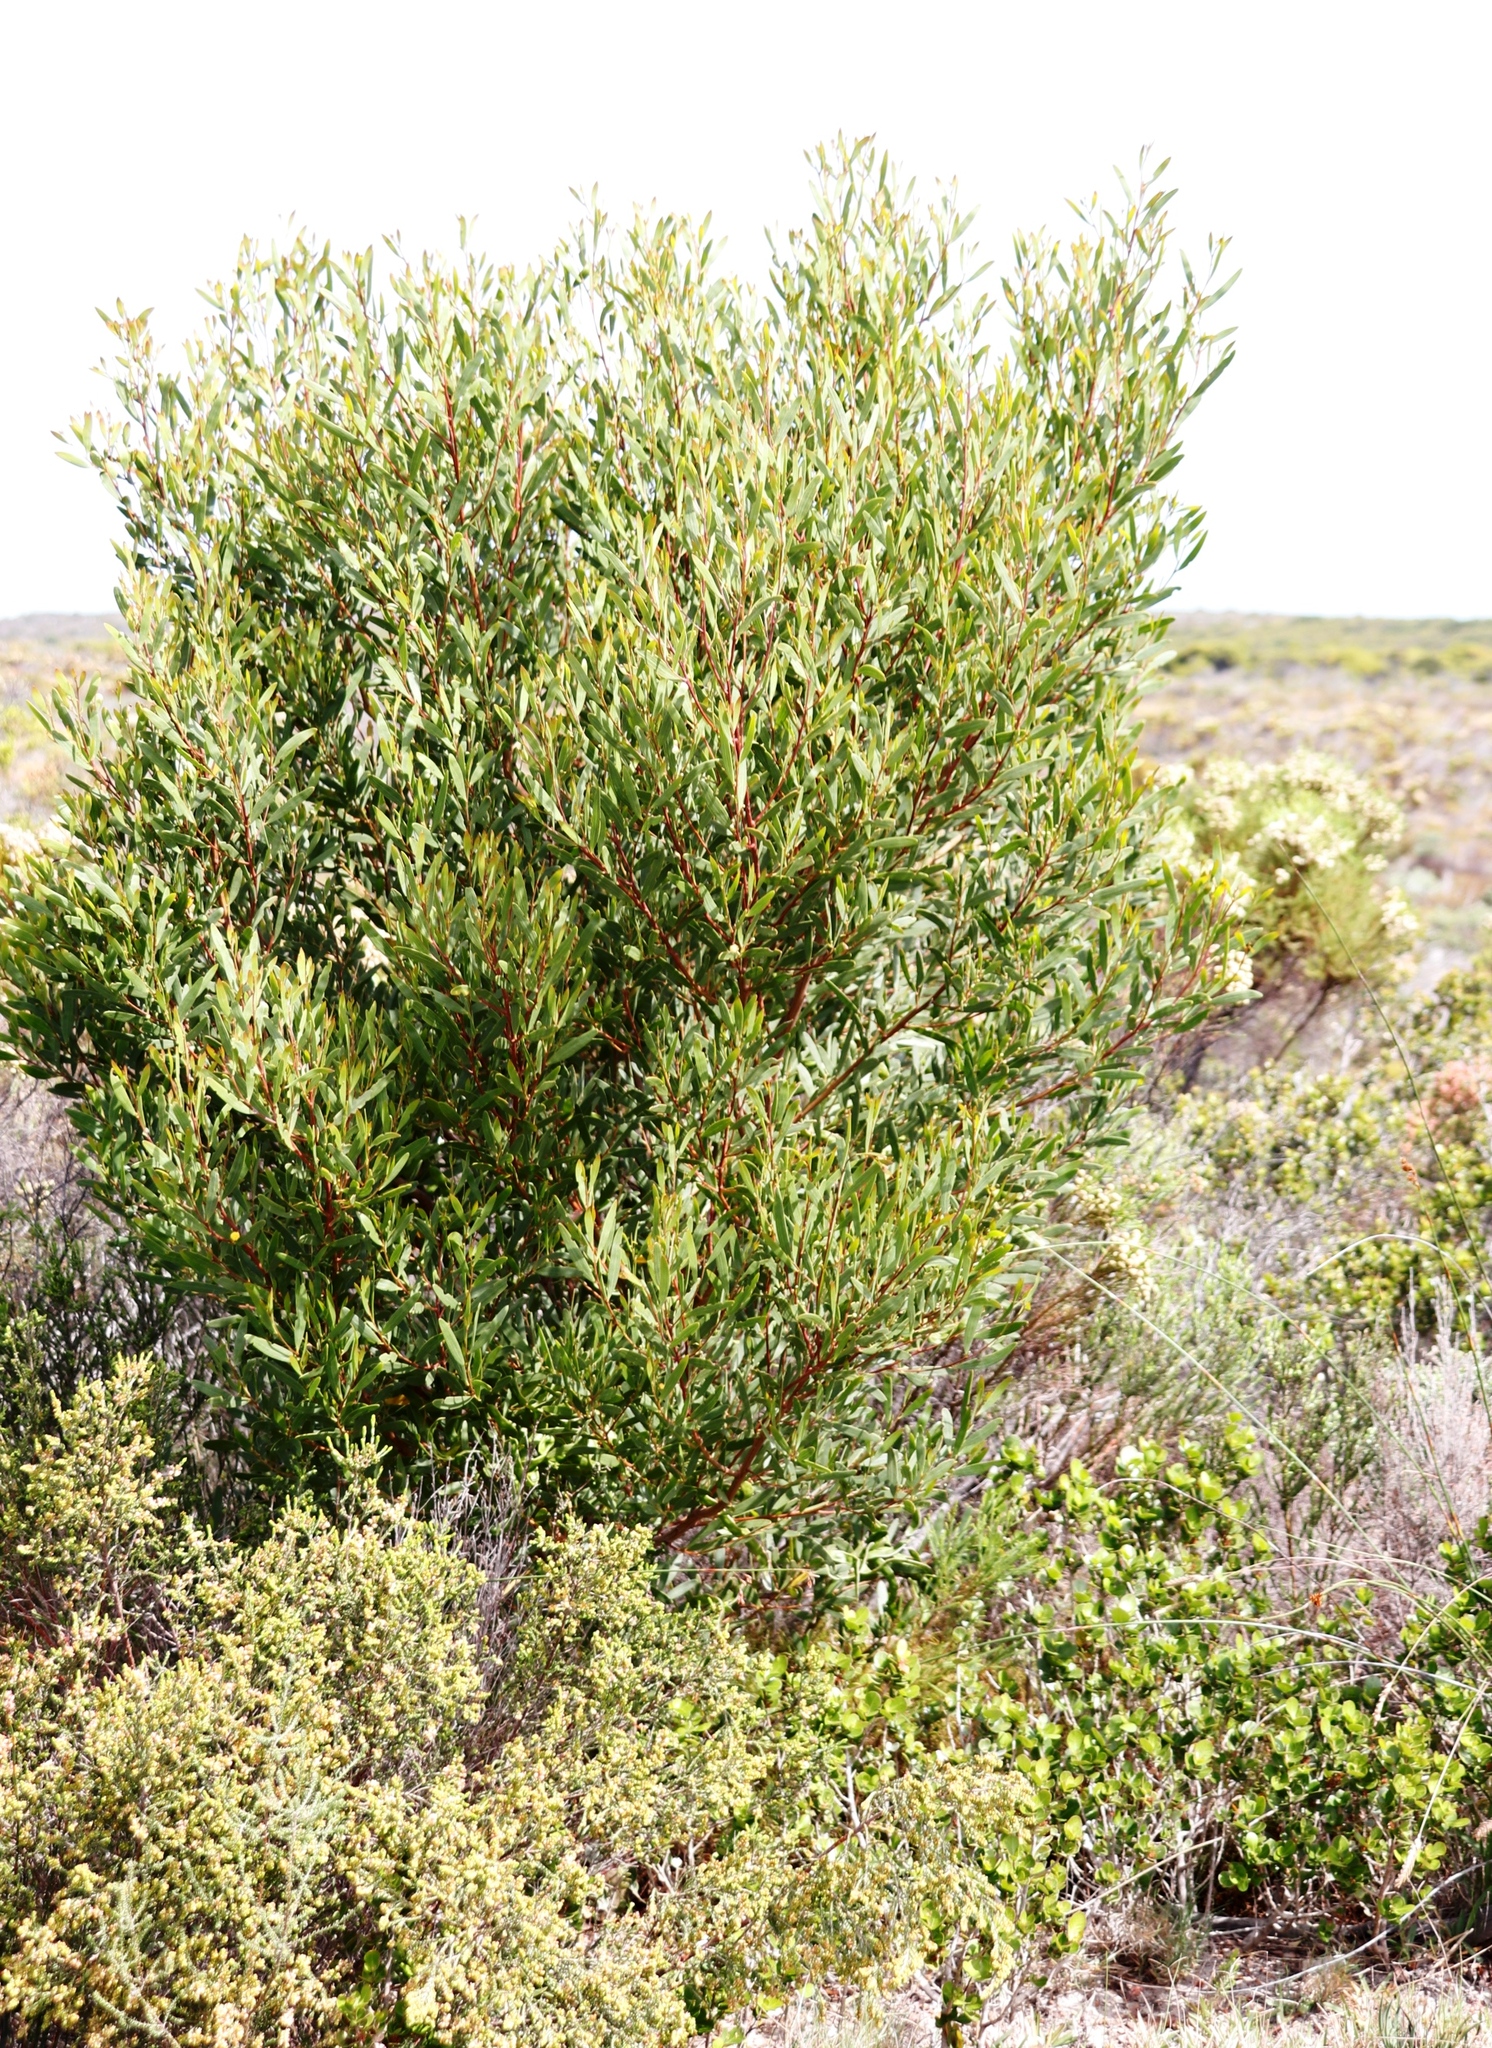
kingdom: Plantae
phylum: Tracheophyta
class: Magnoliopsida
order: Fabales
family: Fabaceae
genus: Acacia
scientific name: Acacia cyclops
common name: Coastal wattle
